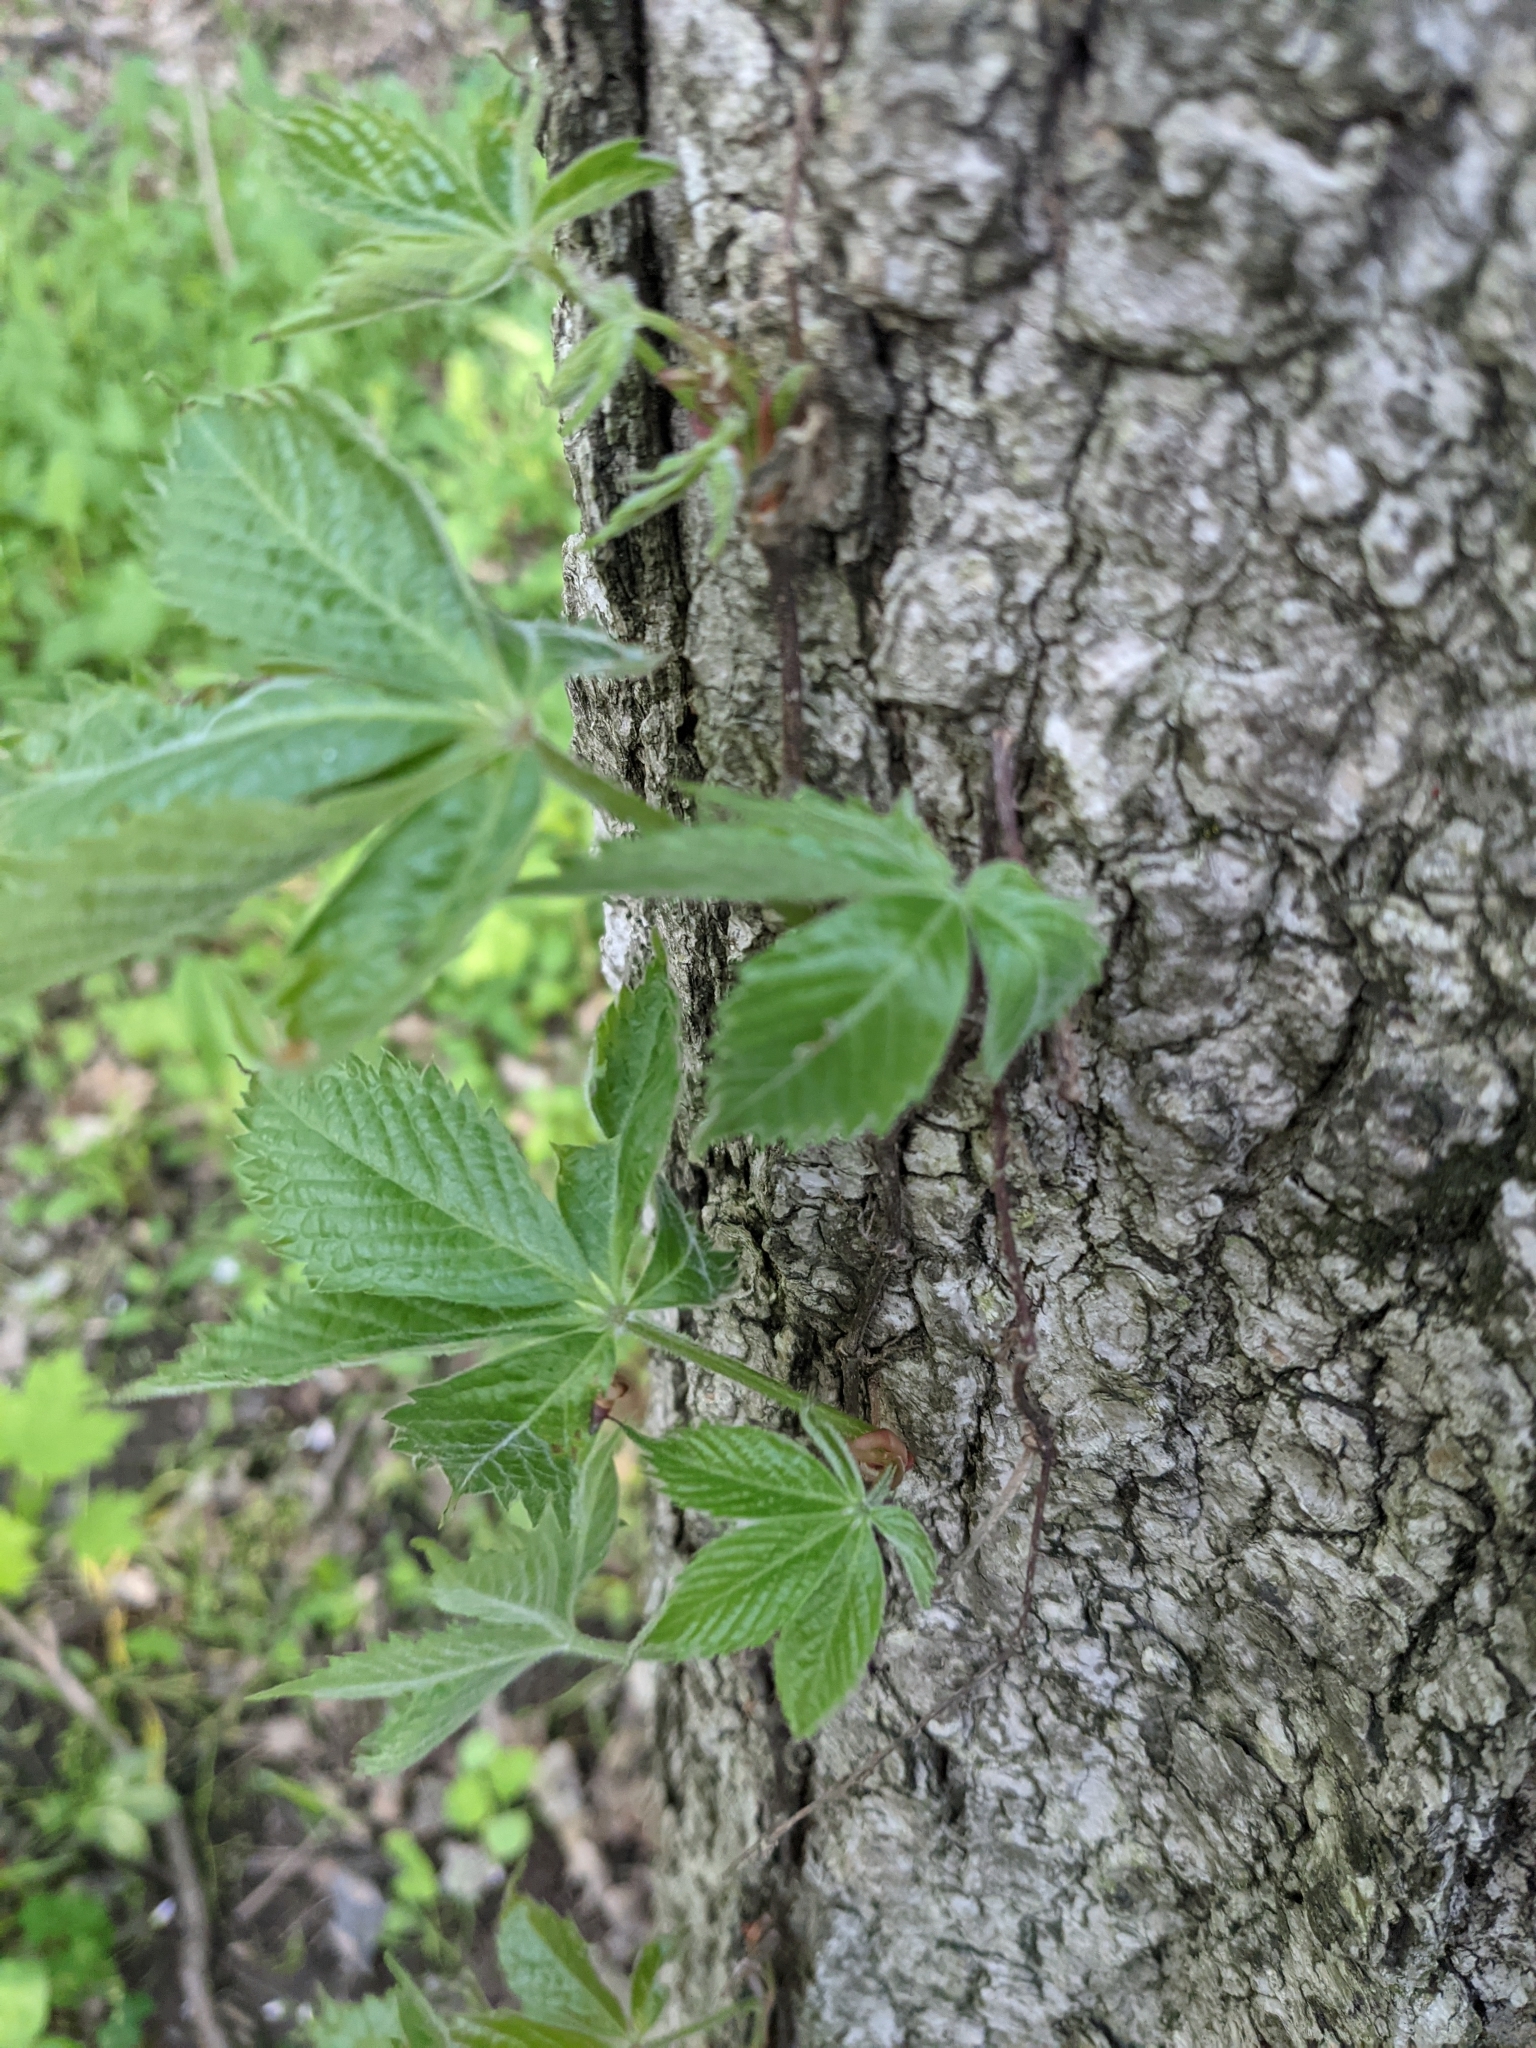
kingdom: Plantae
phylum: Tracheophyta
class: Magnoliopsida
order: Vitales
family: Vitaceae
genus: Parthenocissus
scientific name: Parthenocissus quinquefolia
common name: Virginia-creeper
